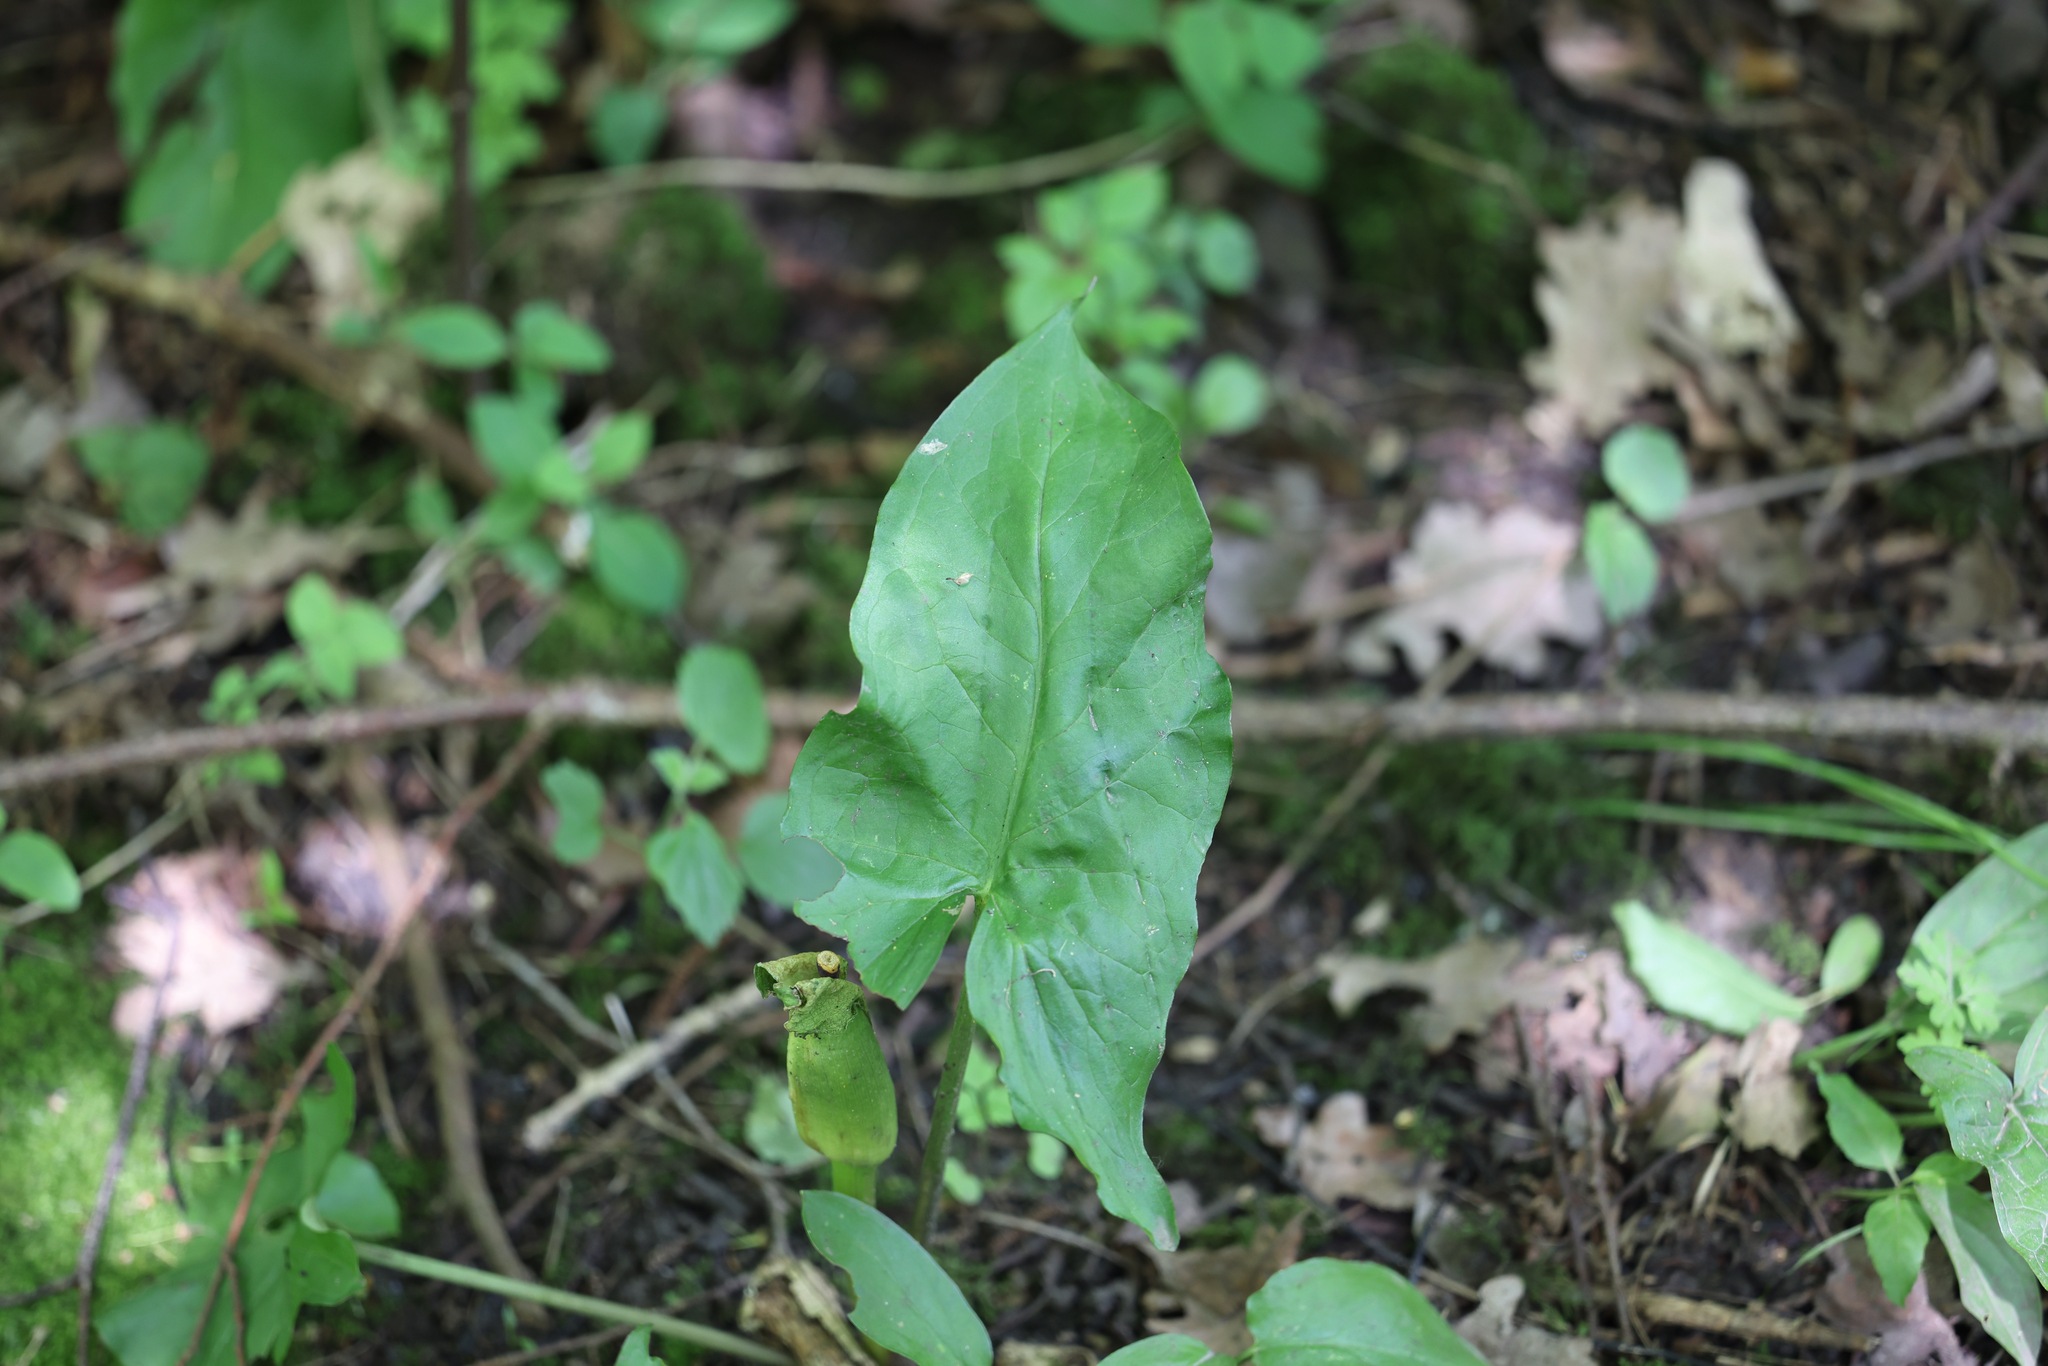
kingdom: Plantae
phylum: Tracheophyta
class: Liliopsida
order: Alismatales
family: Araceae
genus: Arum
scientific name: Arum maculatum
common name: Lords-and-ladies
